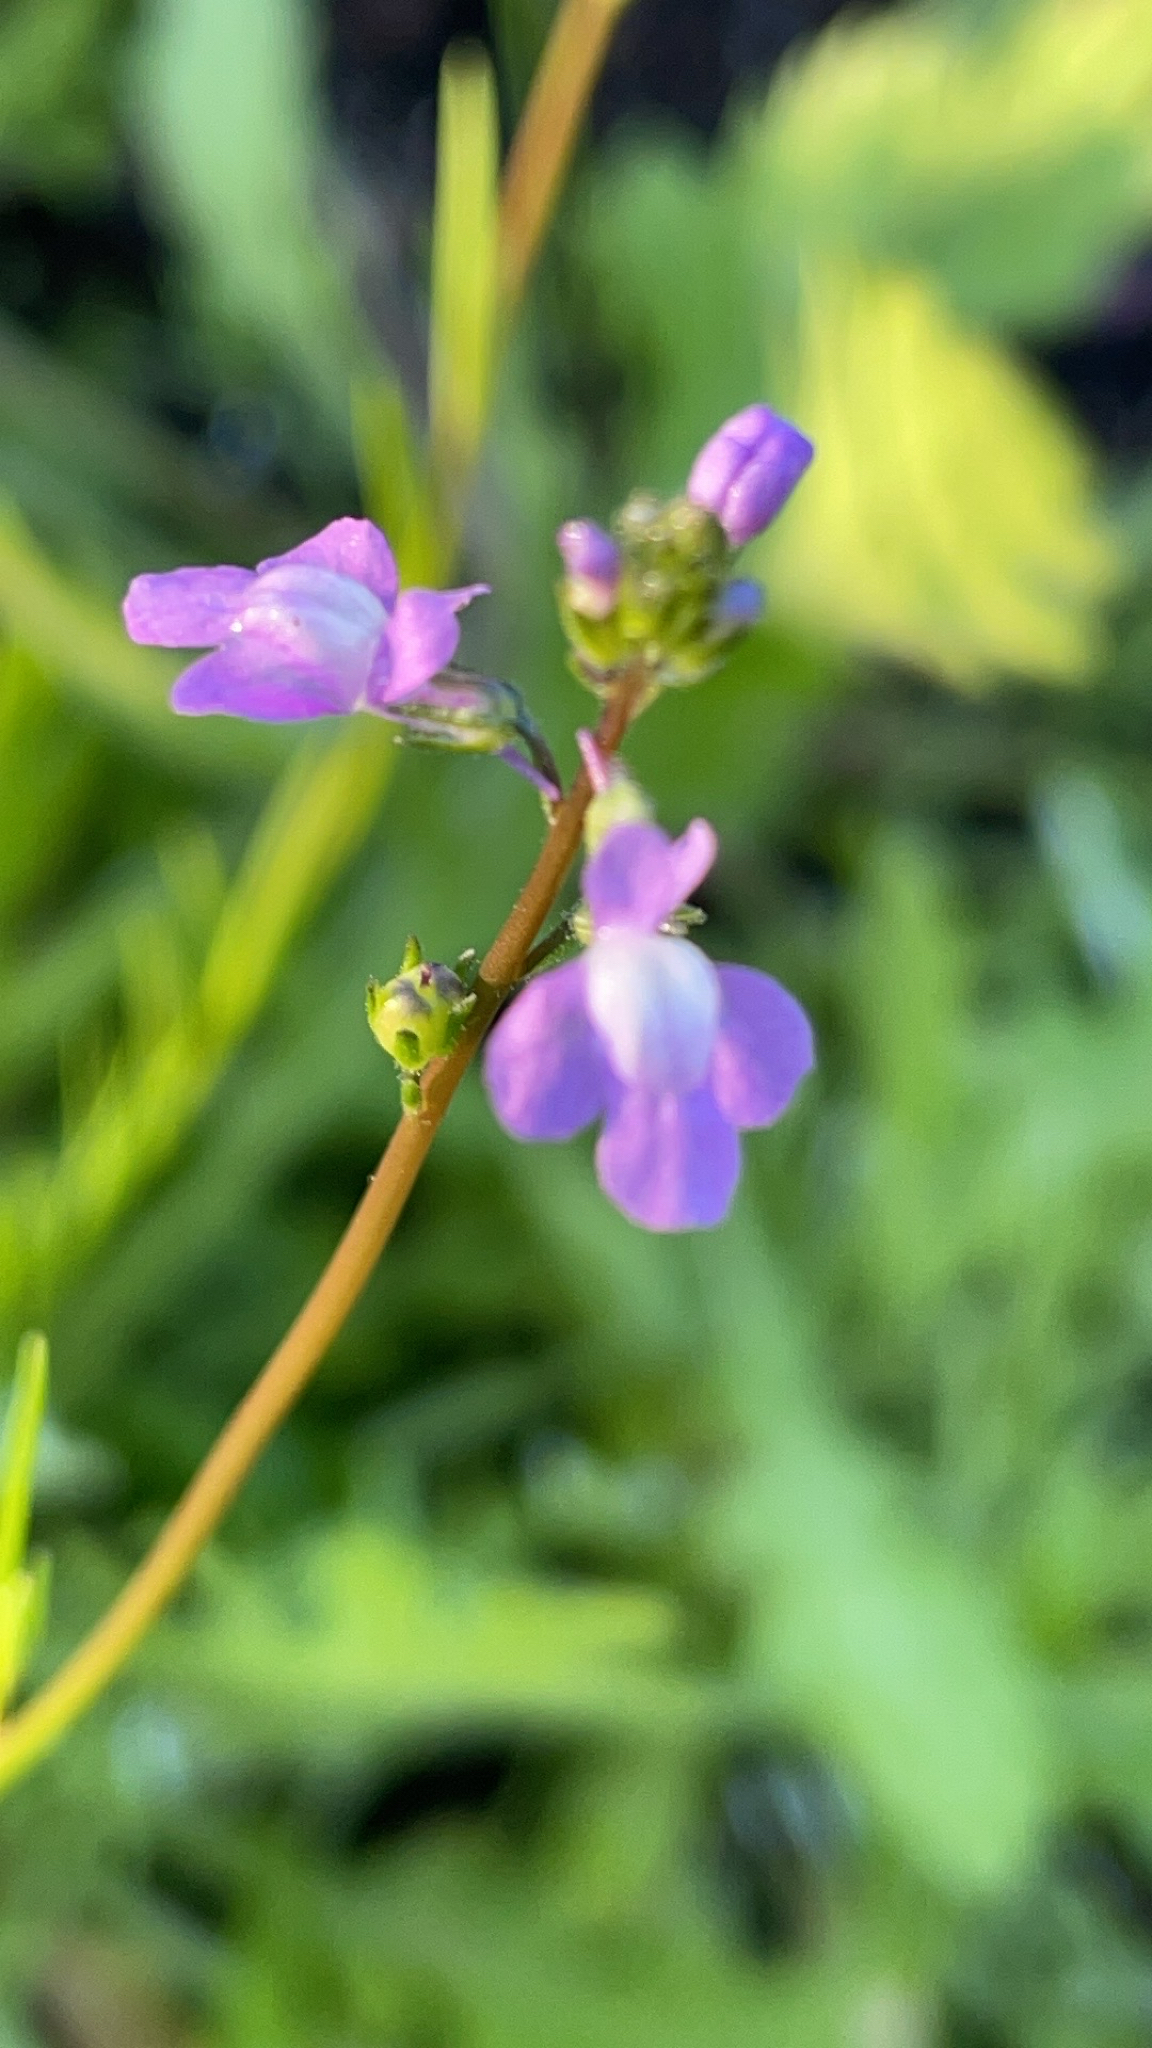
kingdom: Plantae
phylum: Tracheophyta
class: Magnoliopsida
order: Lamiales
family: Plantaginaceae
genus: Nuttallanthus
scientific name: Nuttallanthus canadensis
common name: Blue toadflax
